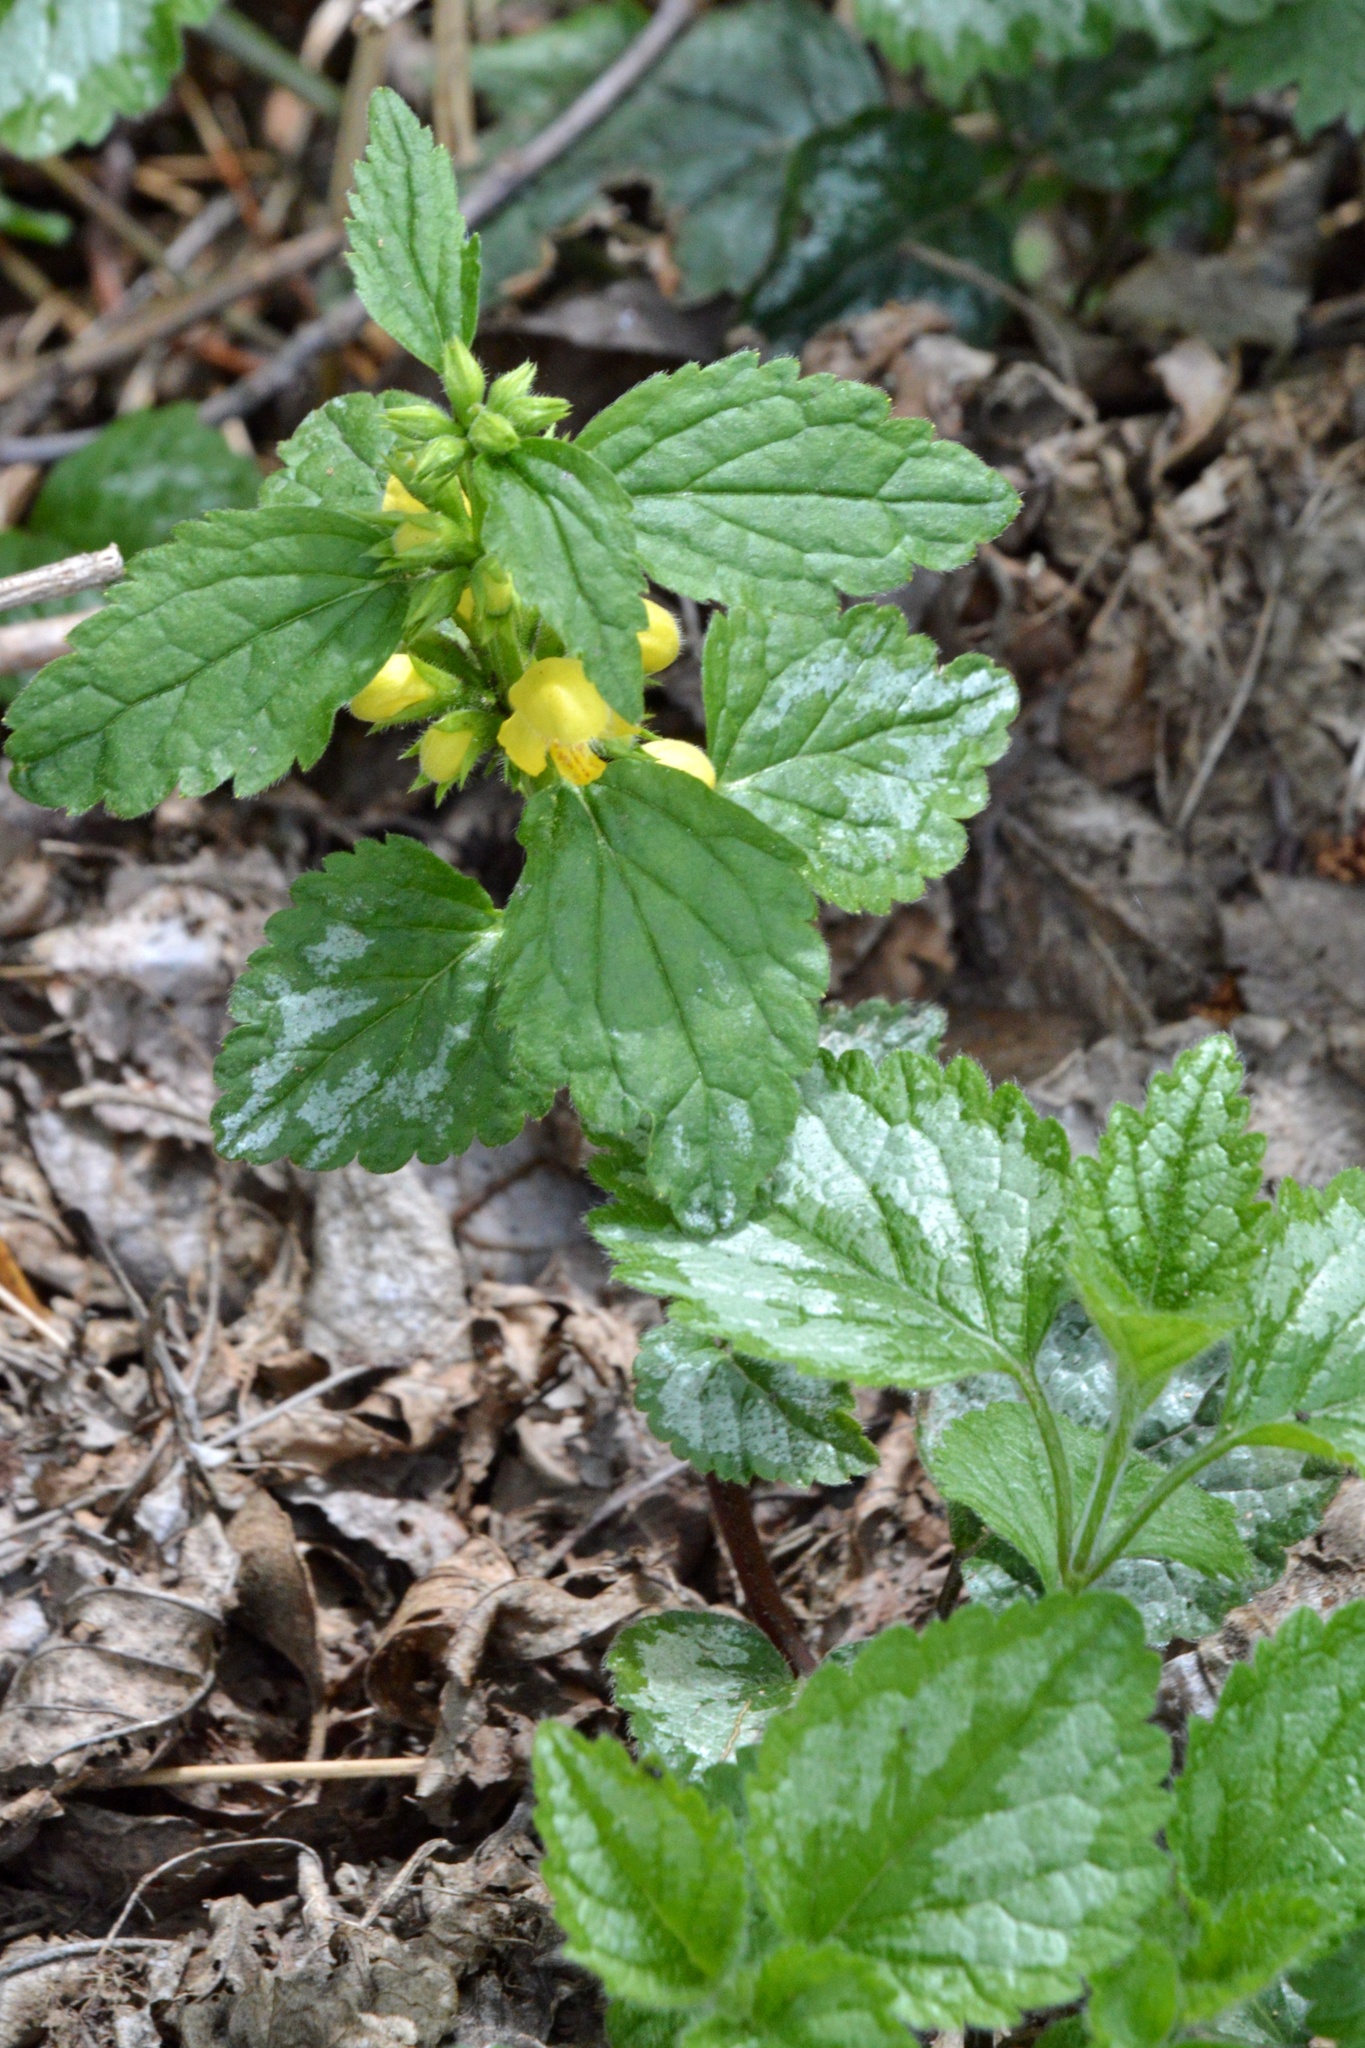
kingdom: Plantae
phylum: Tracheophyta
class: Magnoliopsida
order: Lamiales
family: Lamiaceae
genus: Lamium
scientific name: Lamium galeobdolon
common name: Yellow archangel
